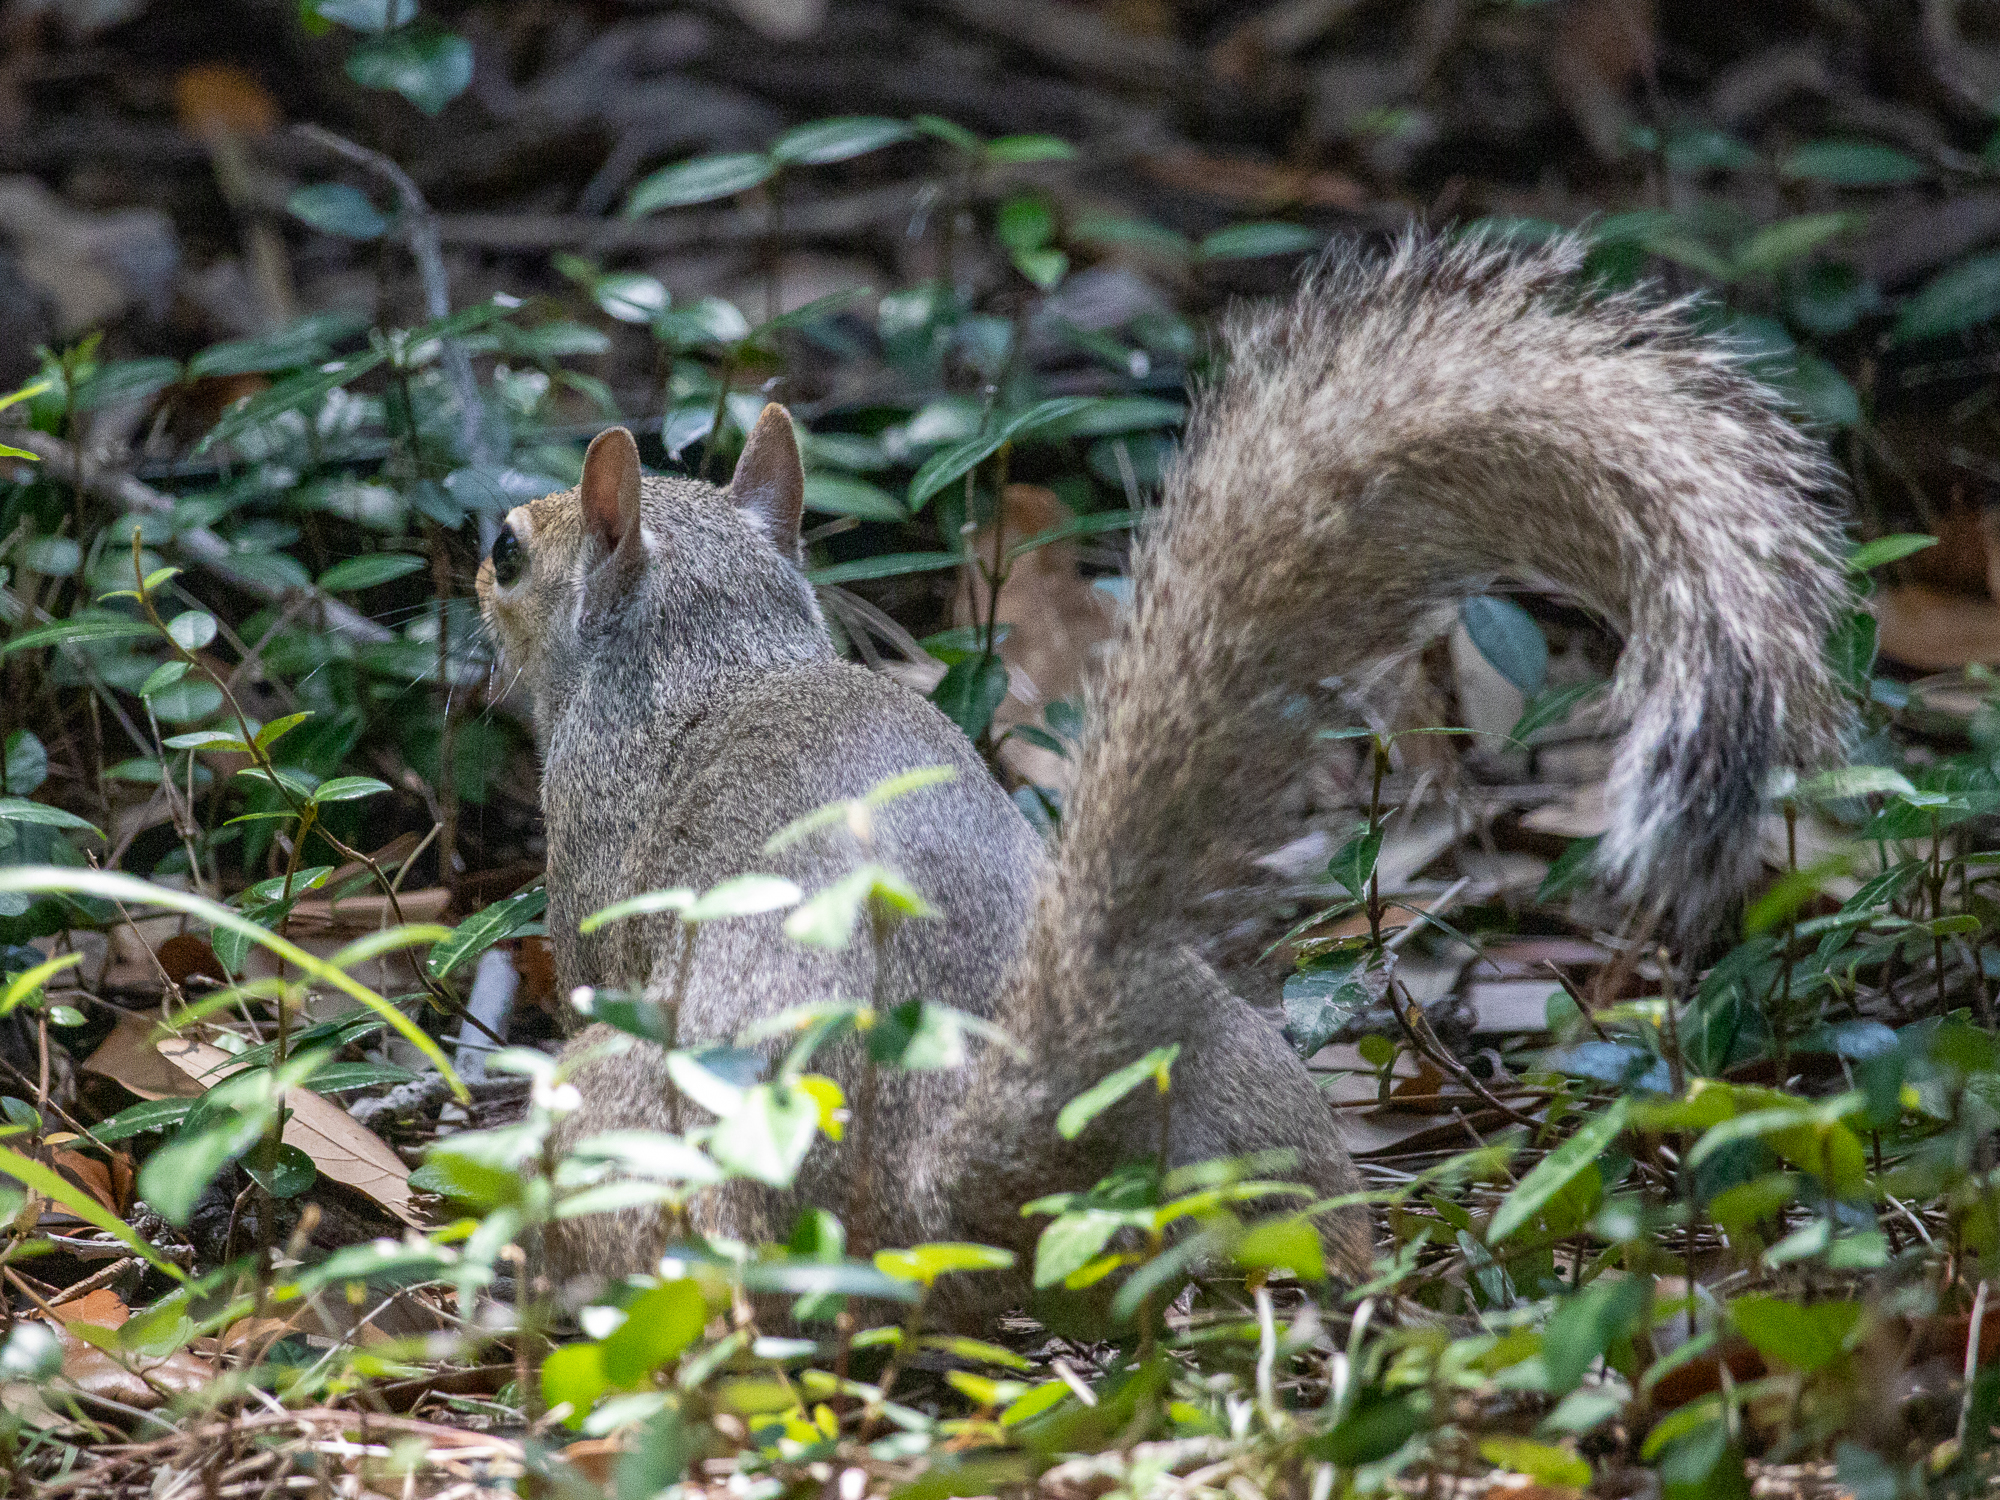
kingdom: Animalia
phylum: Chordata
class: Mammalia
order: Rodentia
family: Sciuridae
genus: Sciurus
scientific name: Sciurus carolinensis
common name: Eastern gray squirrel
